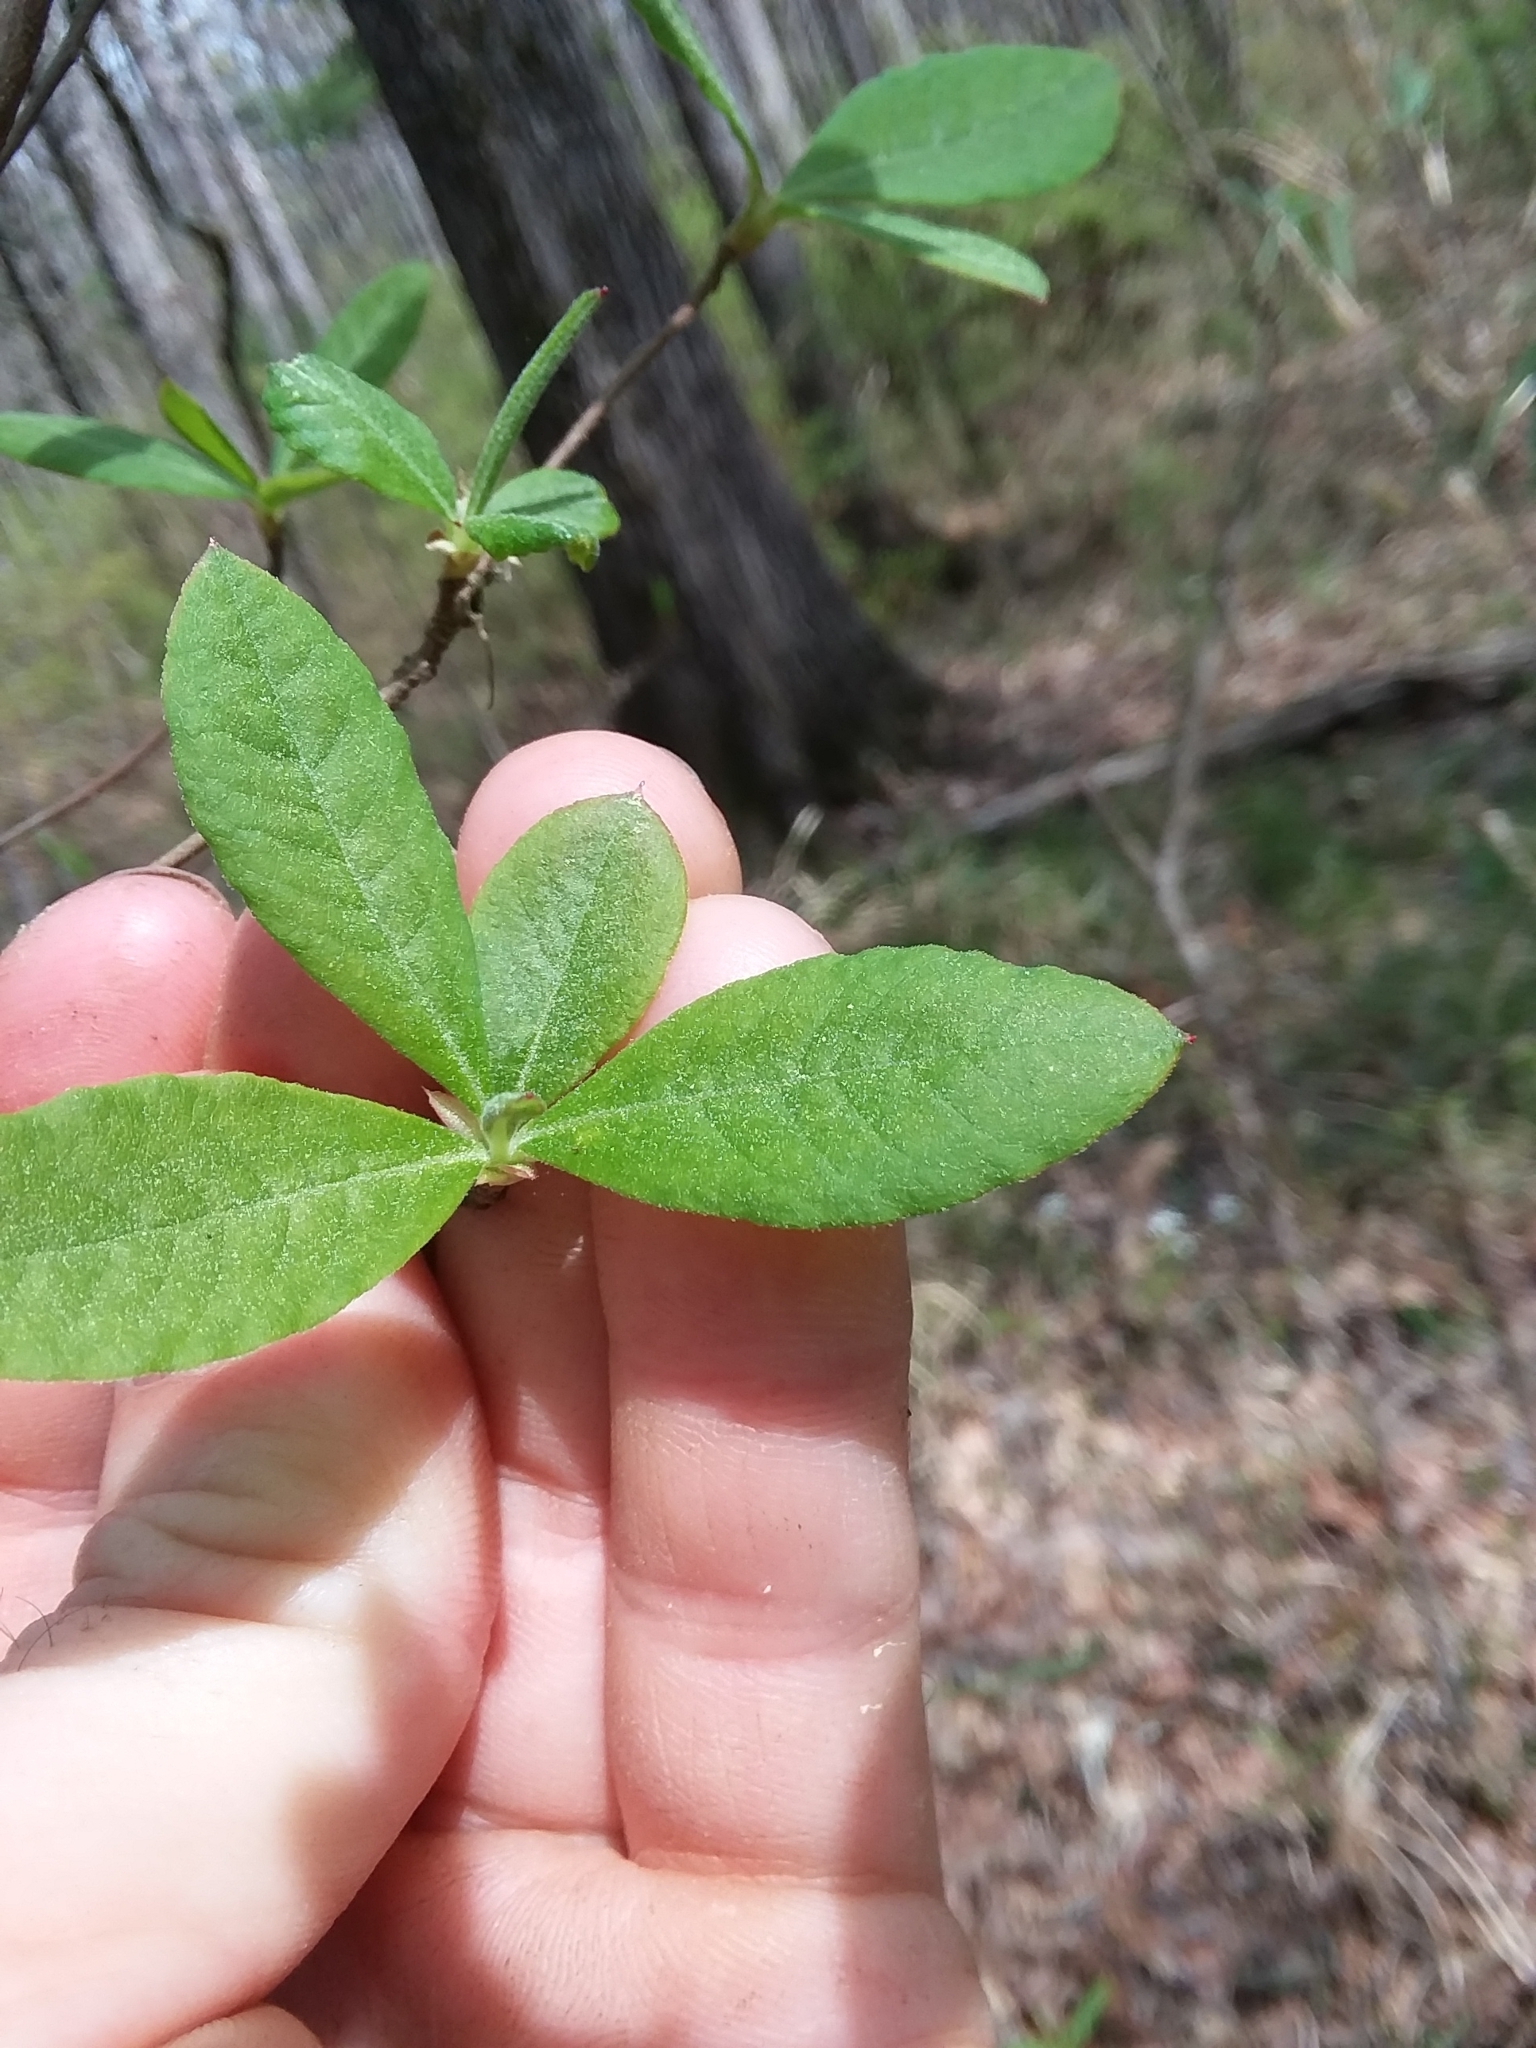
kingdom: Plantae
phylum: Tracheophyta
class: Magnoliopsida
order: Ericales
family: Ericaceae
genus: Rhododendron
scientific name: Rhododendron canescens
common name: Mountain azalea
